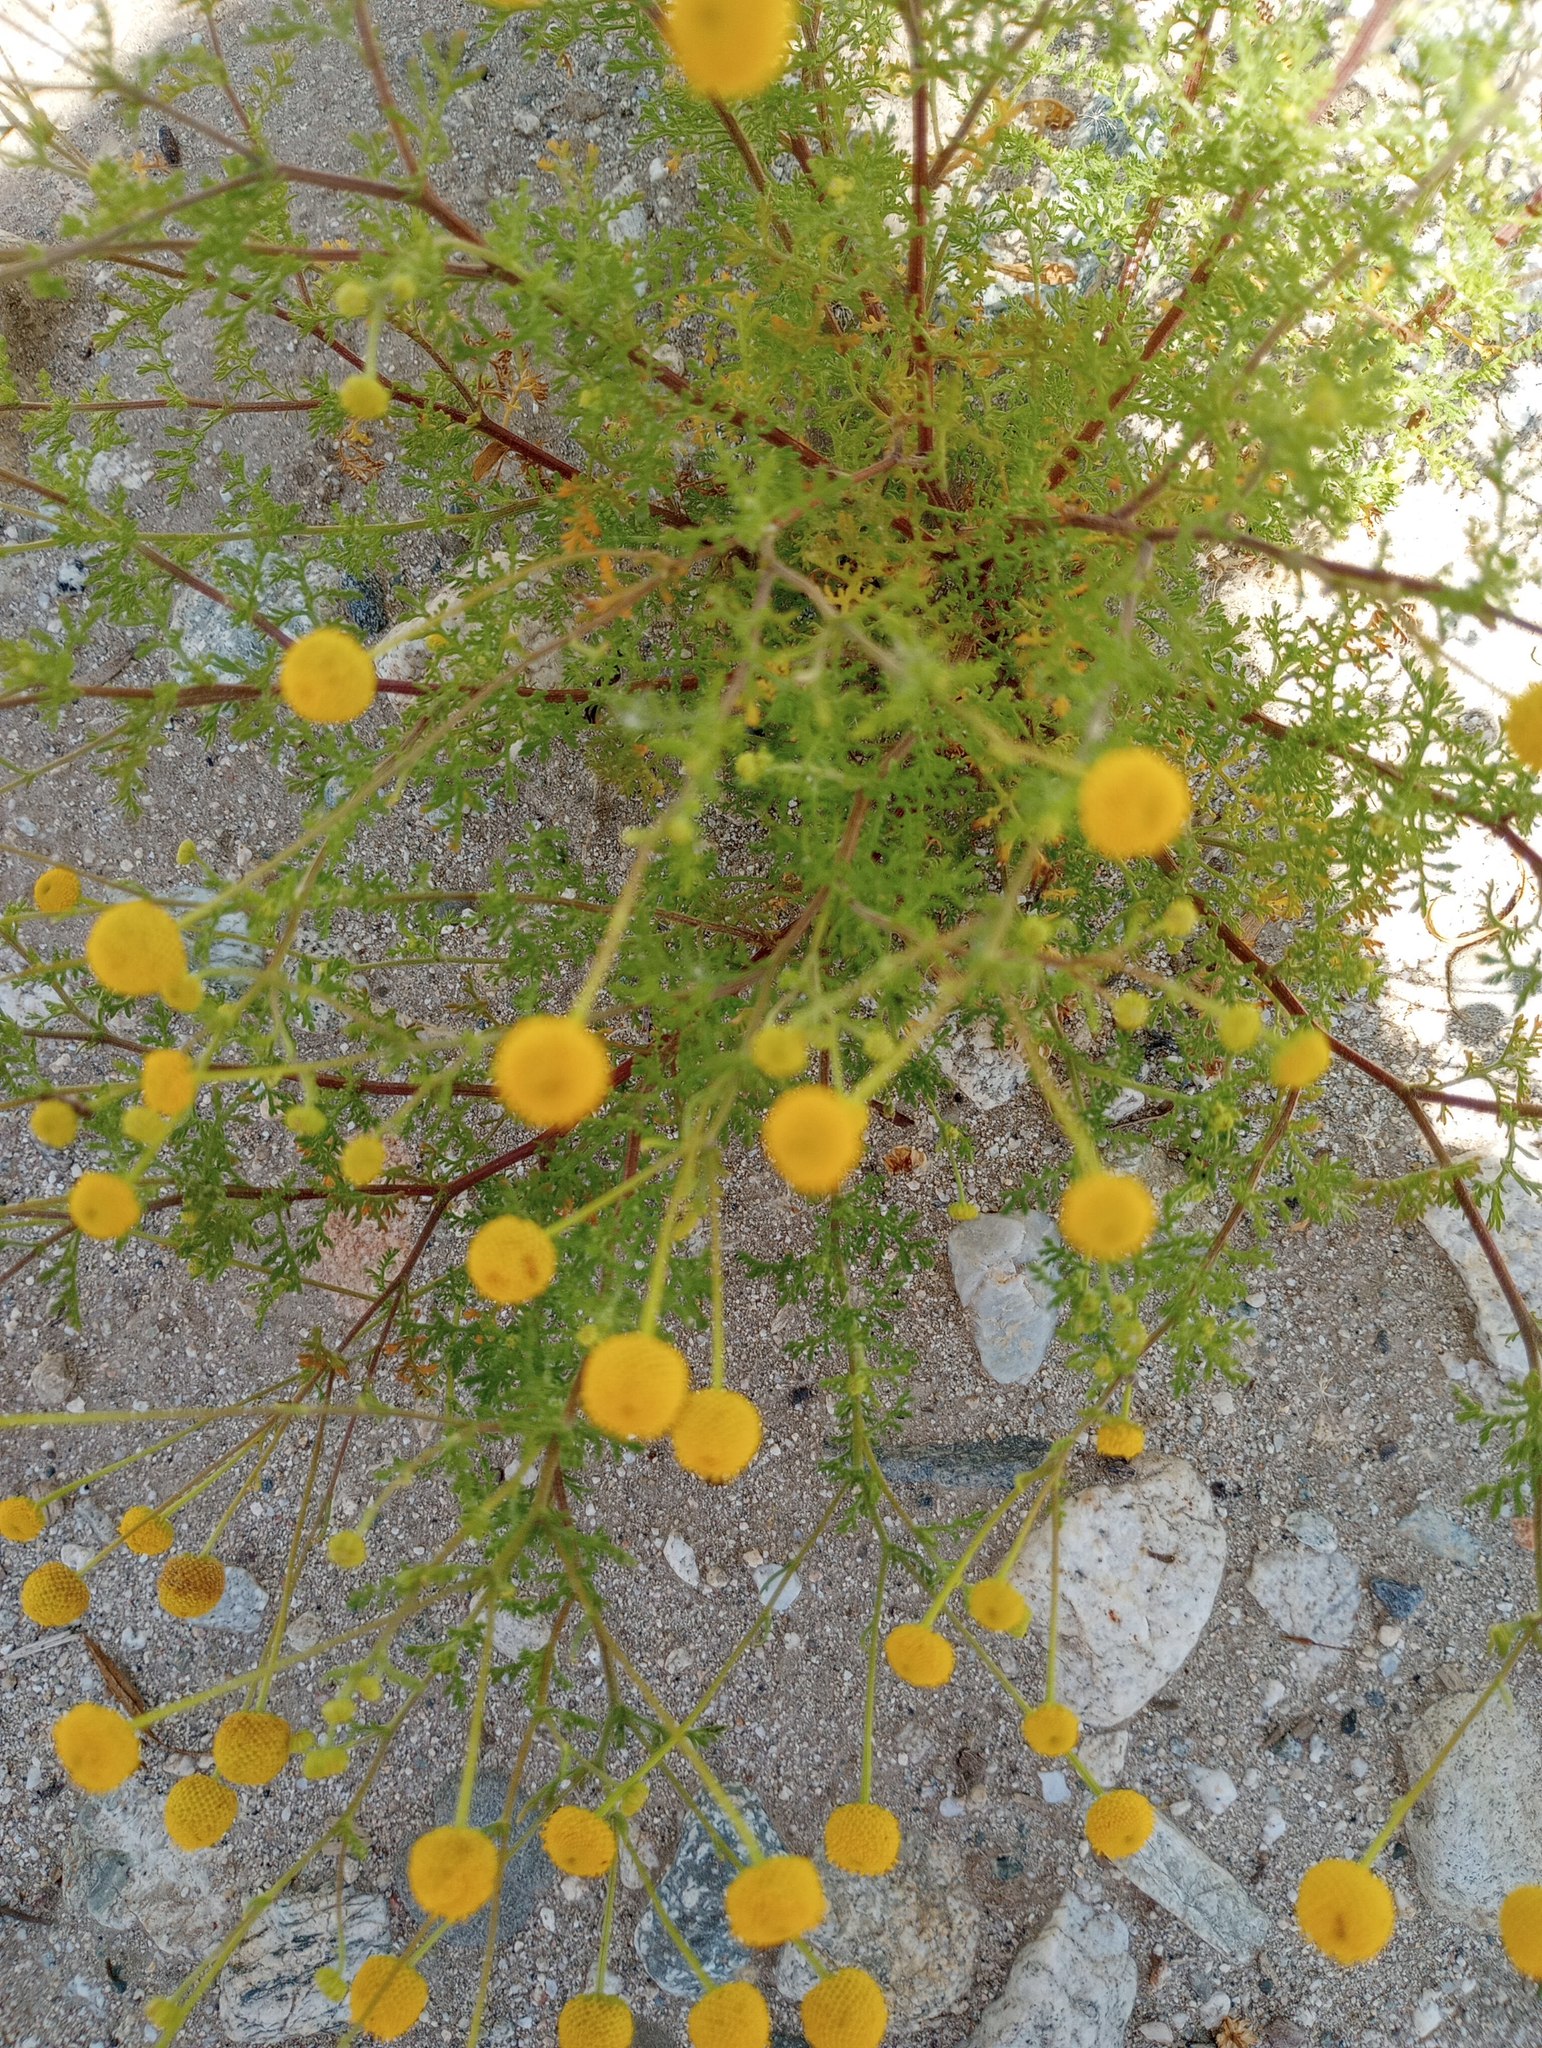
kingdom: Plantae
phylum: Tracheophyta
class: Magnoliopsida
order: Asterales
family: Asteraceae
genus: Oncosiphon
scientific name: Oncosiphon pilulifer
